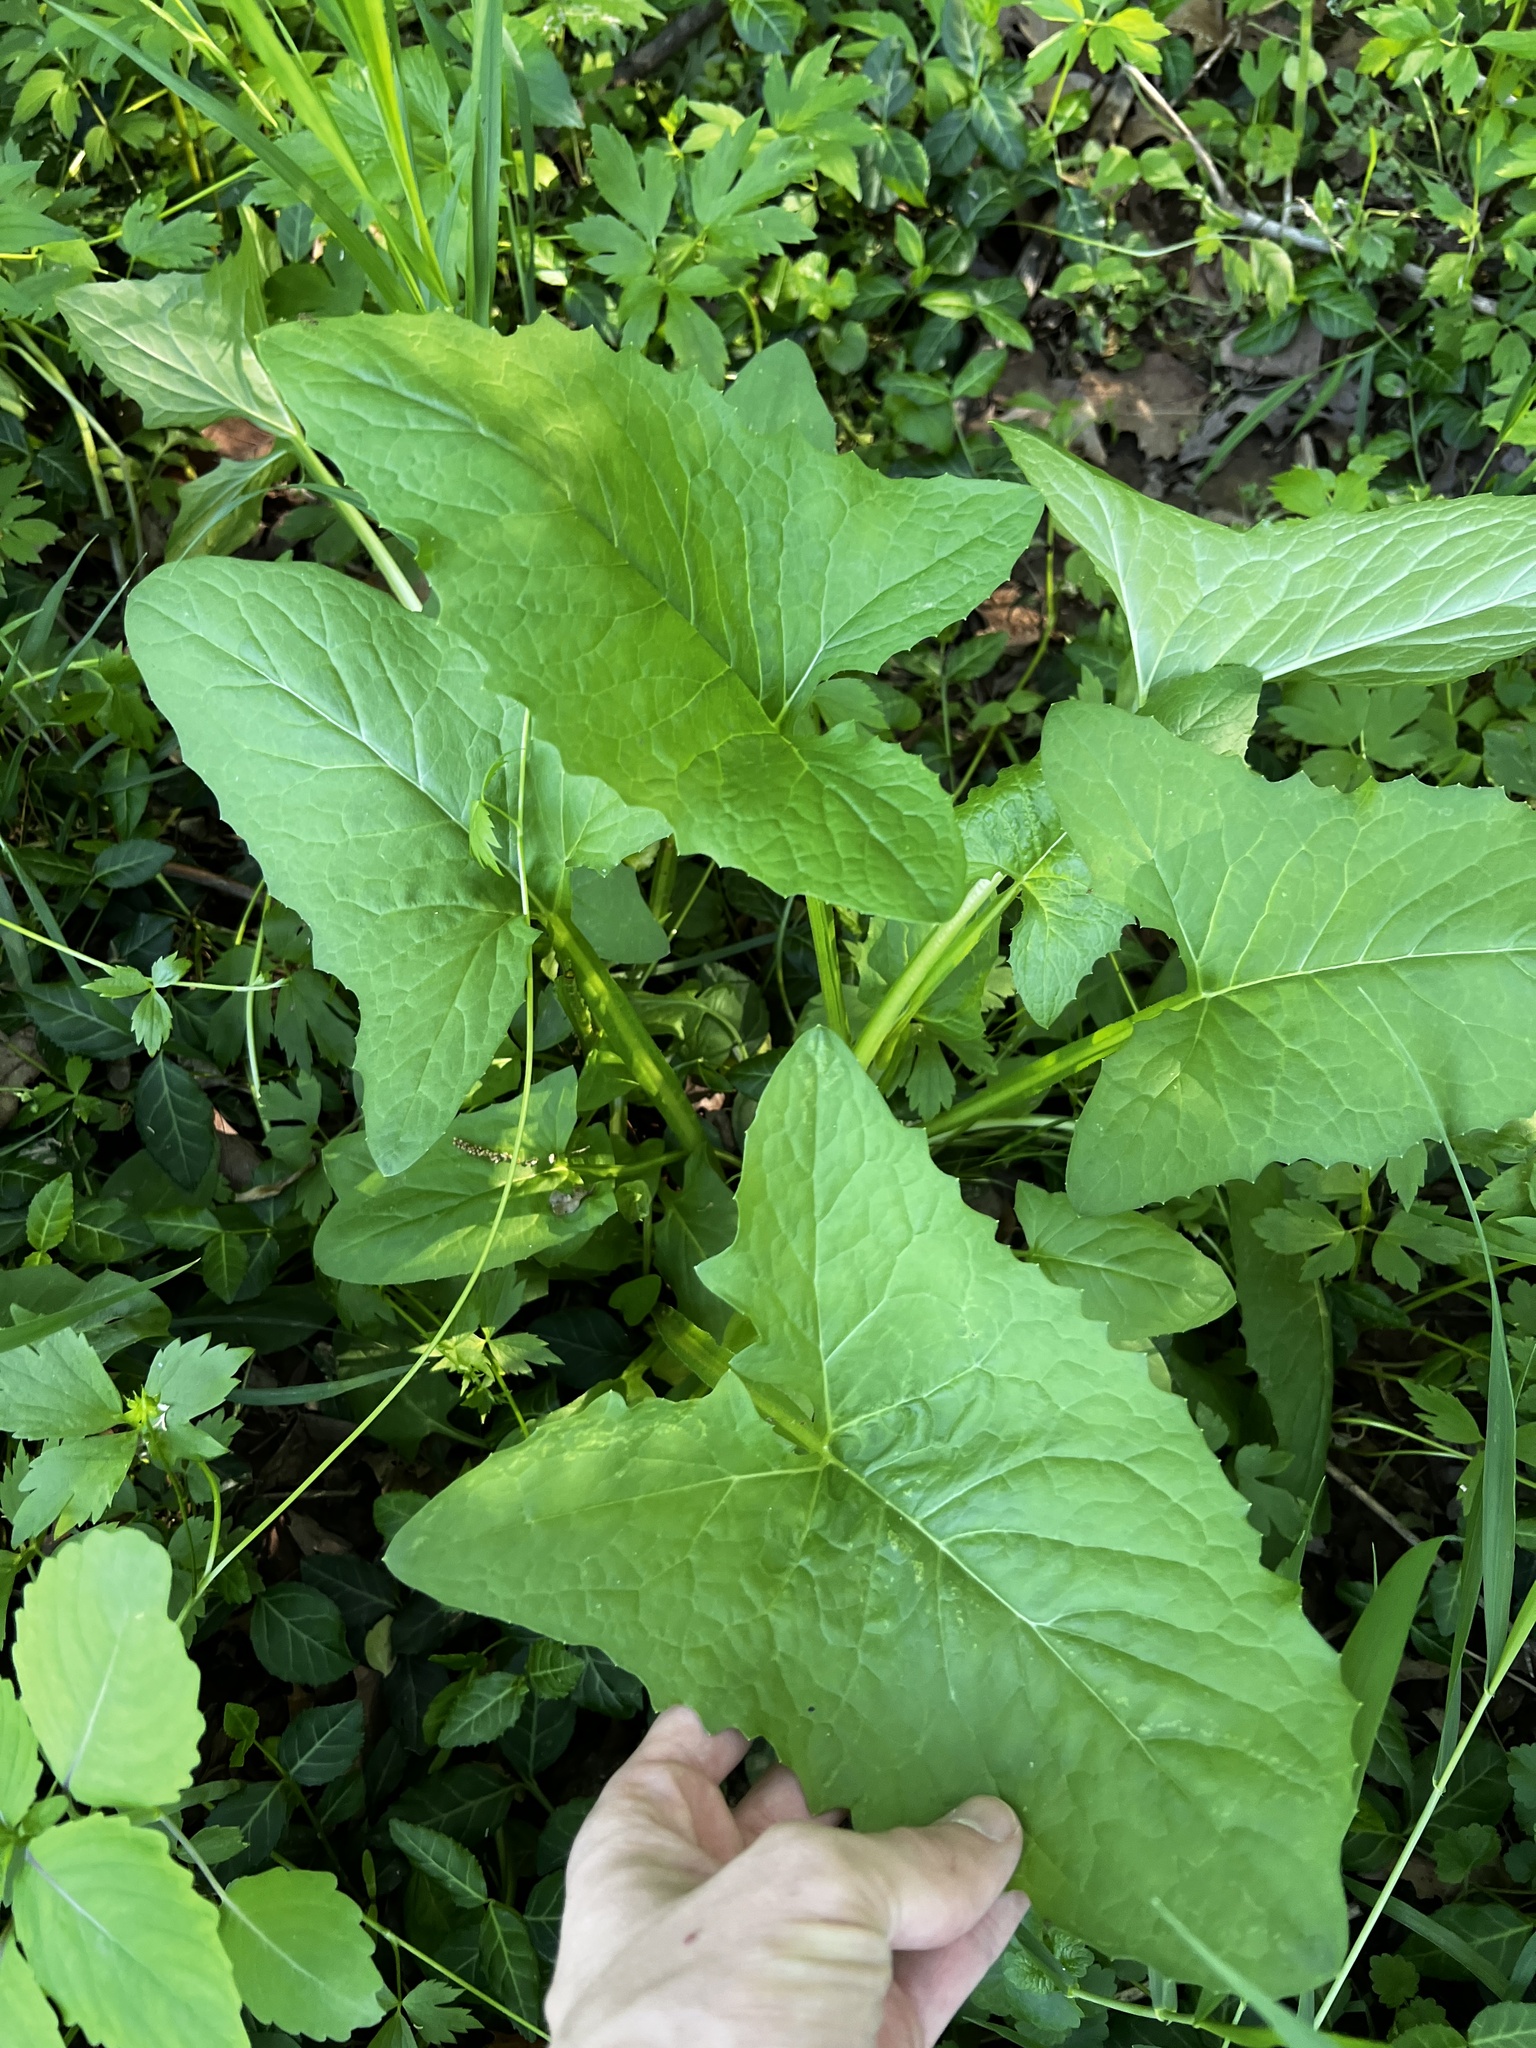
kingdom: Plantae
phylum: Tracheophyta
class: Magnoliopsida
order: Asterales
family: Asteraceae
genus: Nabalus
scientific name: Nabalus crepidineus
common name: Nodding rattlesnakeroot
